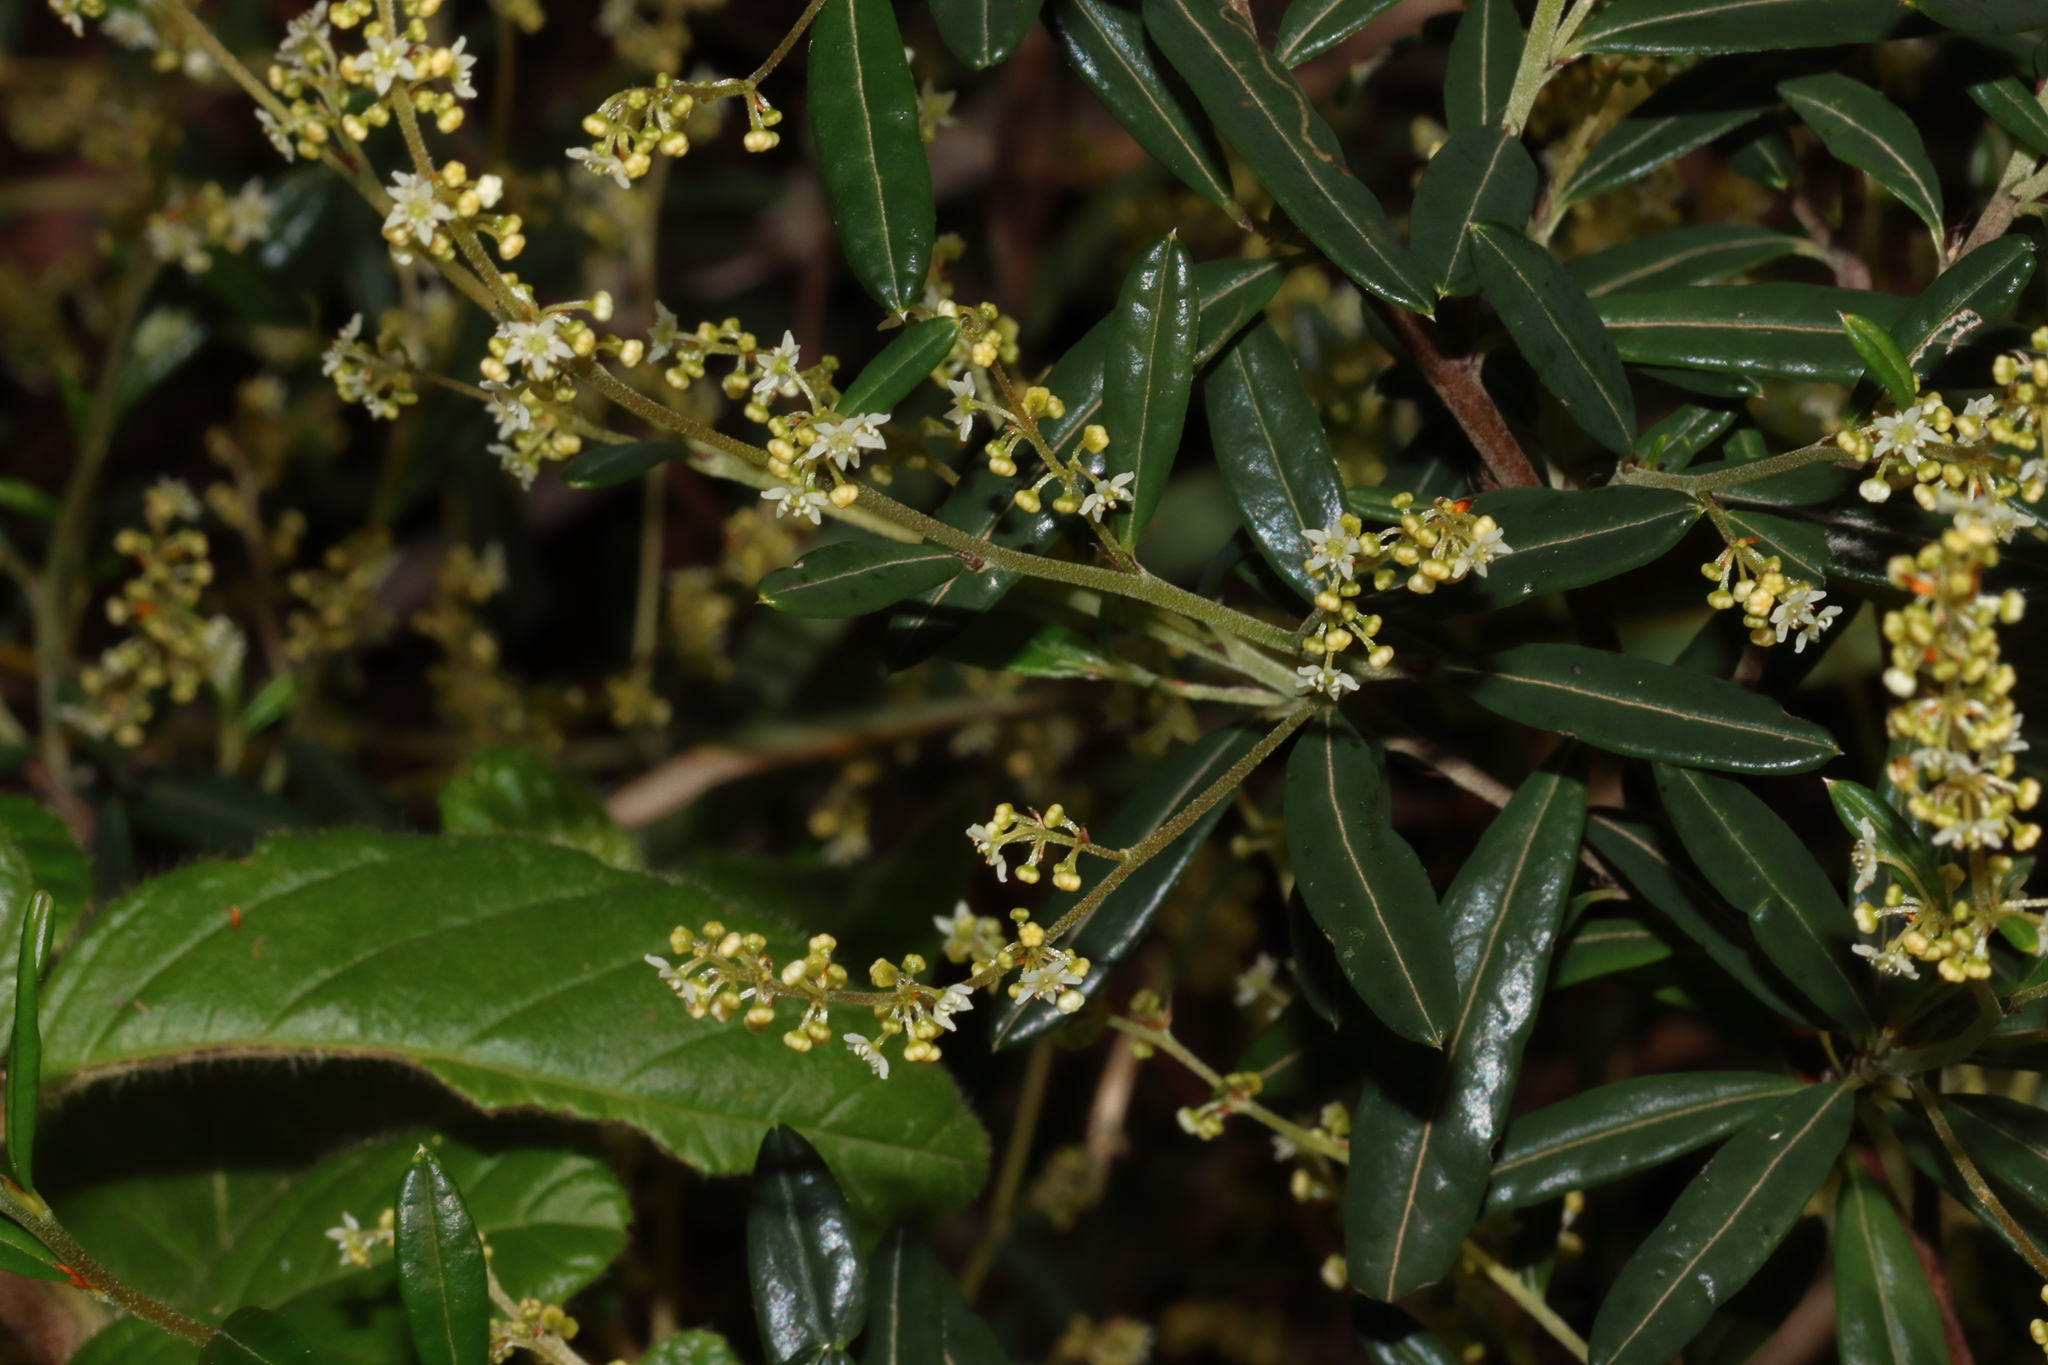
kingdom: Plantae
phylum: Tracheophyta
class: Magnoliopsida
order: Rosales
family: Rhamnaceae
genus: Trymalium
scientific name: Trymalium ledifolium
